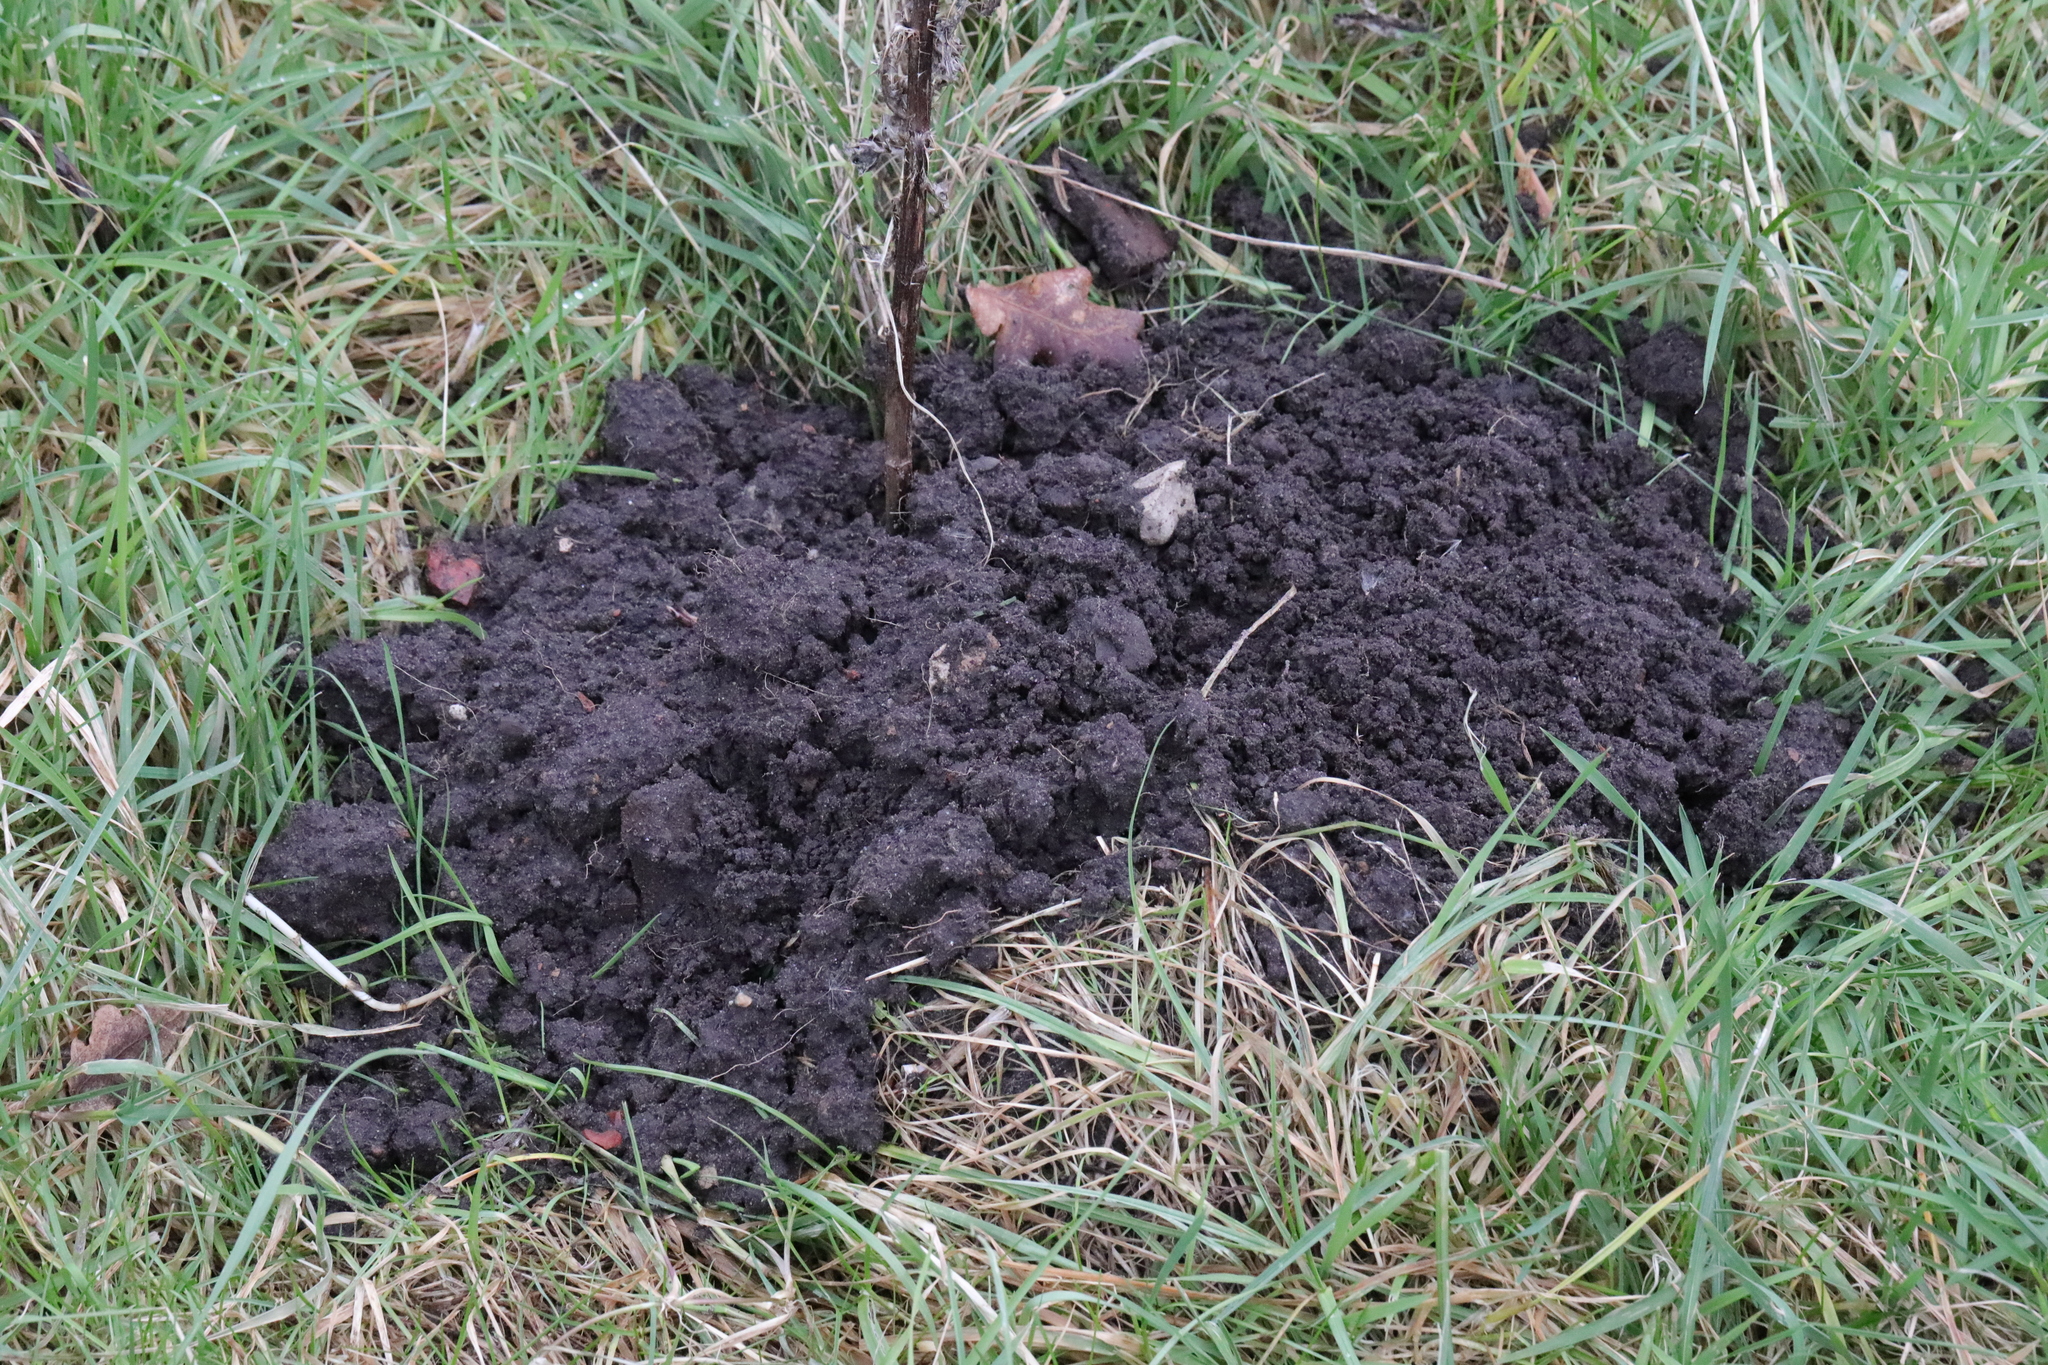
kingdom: Animalia
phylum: Chordata
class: Mammalia
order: Soricomorpha
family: Talpidae
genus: Talpa
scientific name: Talpa europaea
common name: European mole
